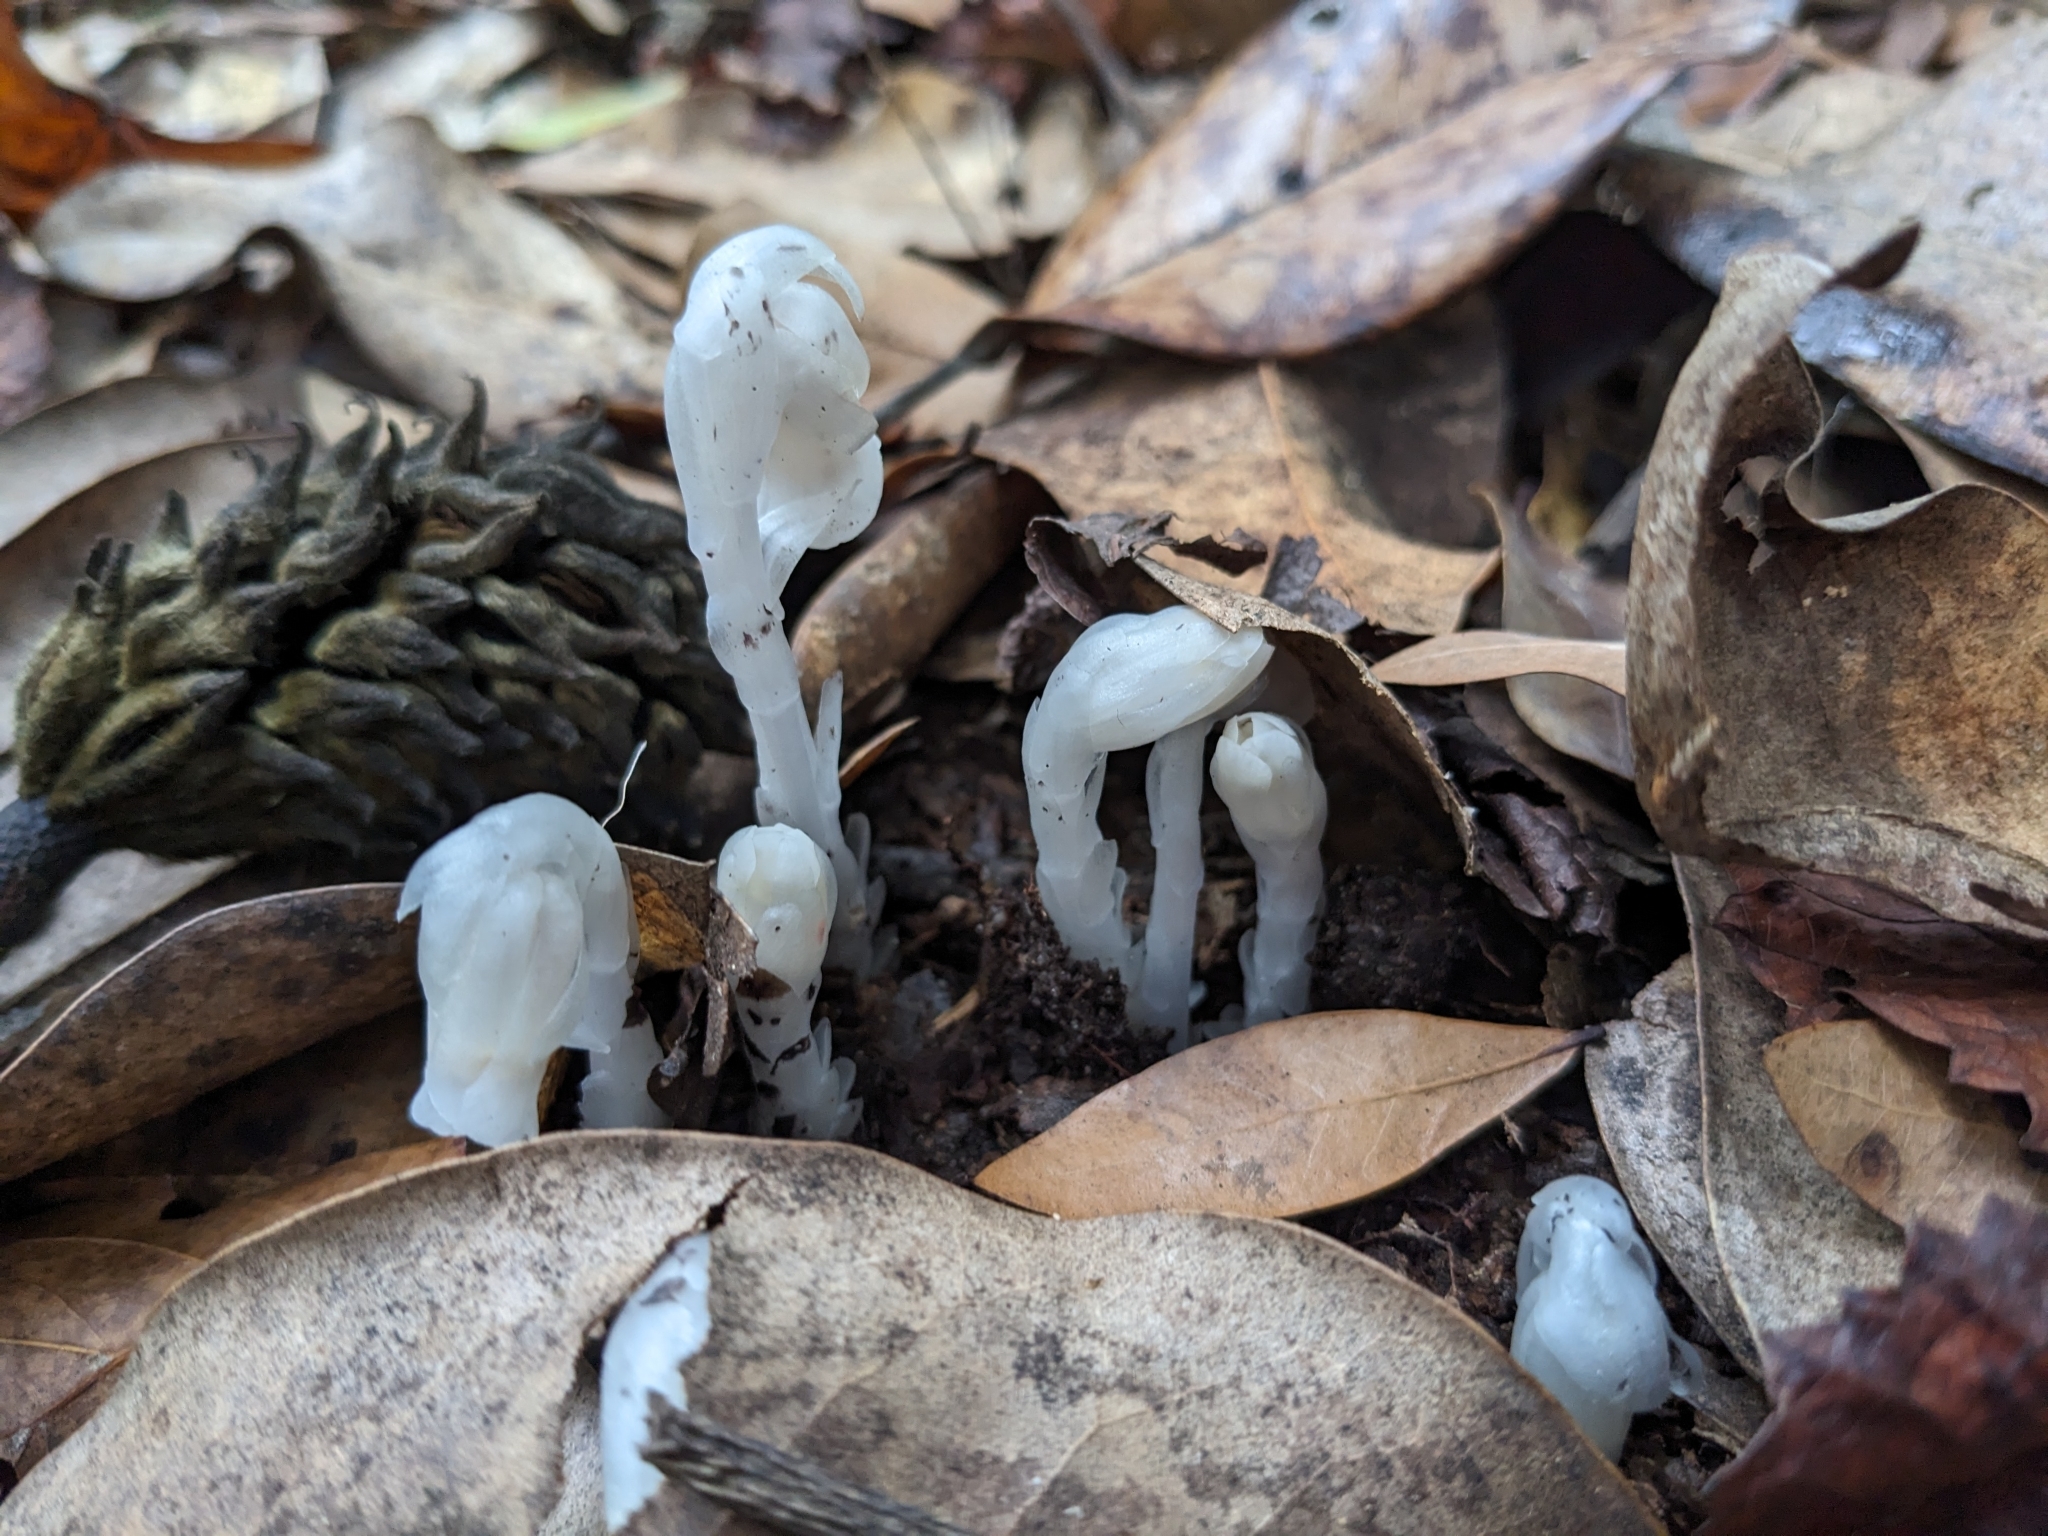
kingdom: Plantae
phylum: Tracheophyta
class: Magnoliopsida
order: Ericales
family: Ericaceae
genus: Monotropa
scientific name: Monotropa uniflora
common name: Convulsion root
